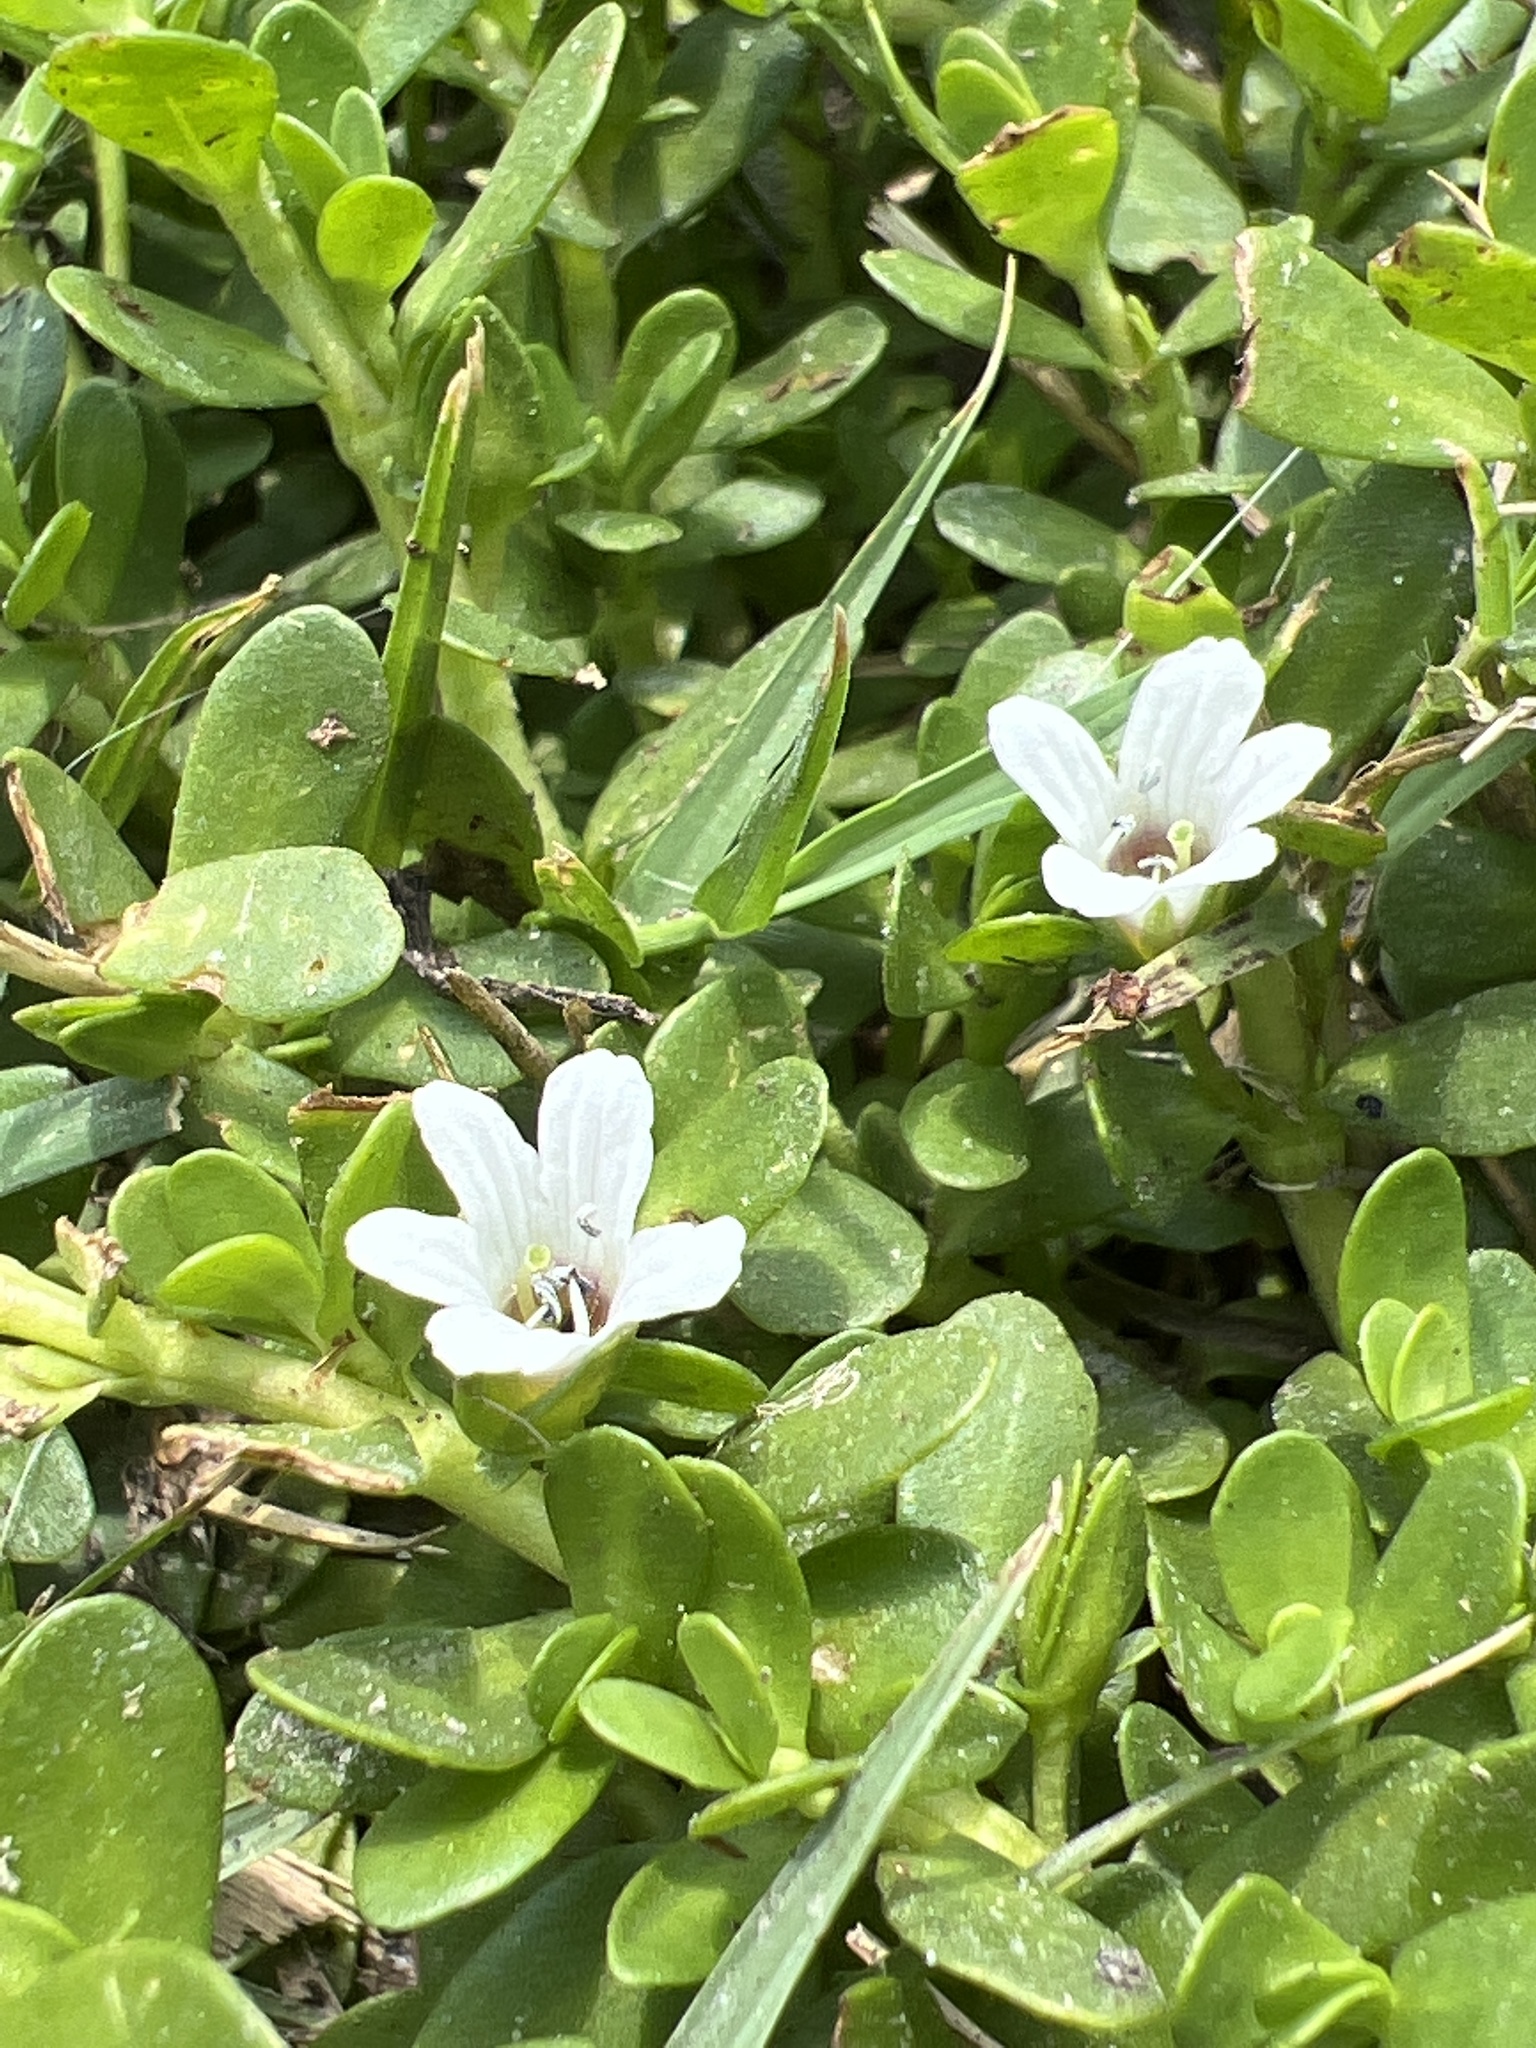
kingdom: Plantae
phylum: Tracheophyta
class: Magnoliopsida
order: Lamiales
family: Plantaginaceae
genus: Bacopa
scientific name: Bacopa monnieri
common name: Indian-pennywort
